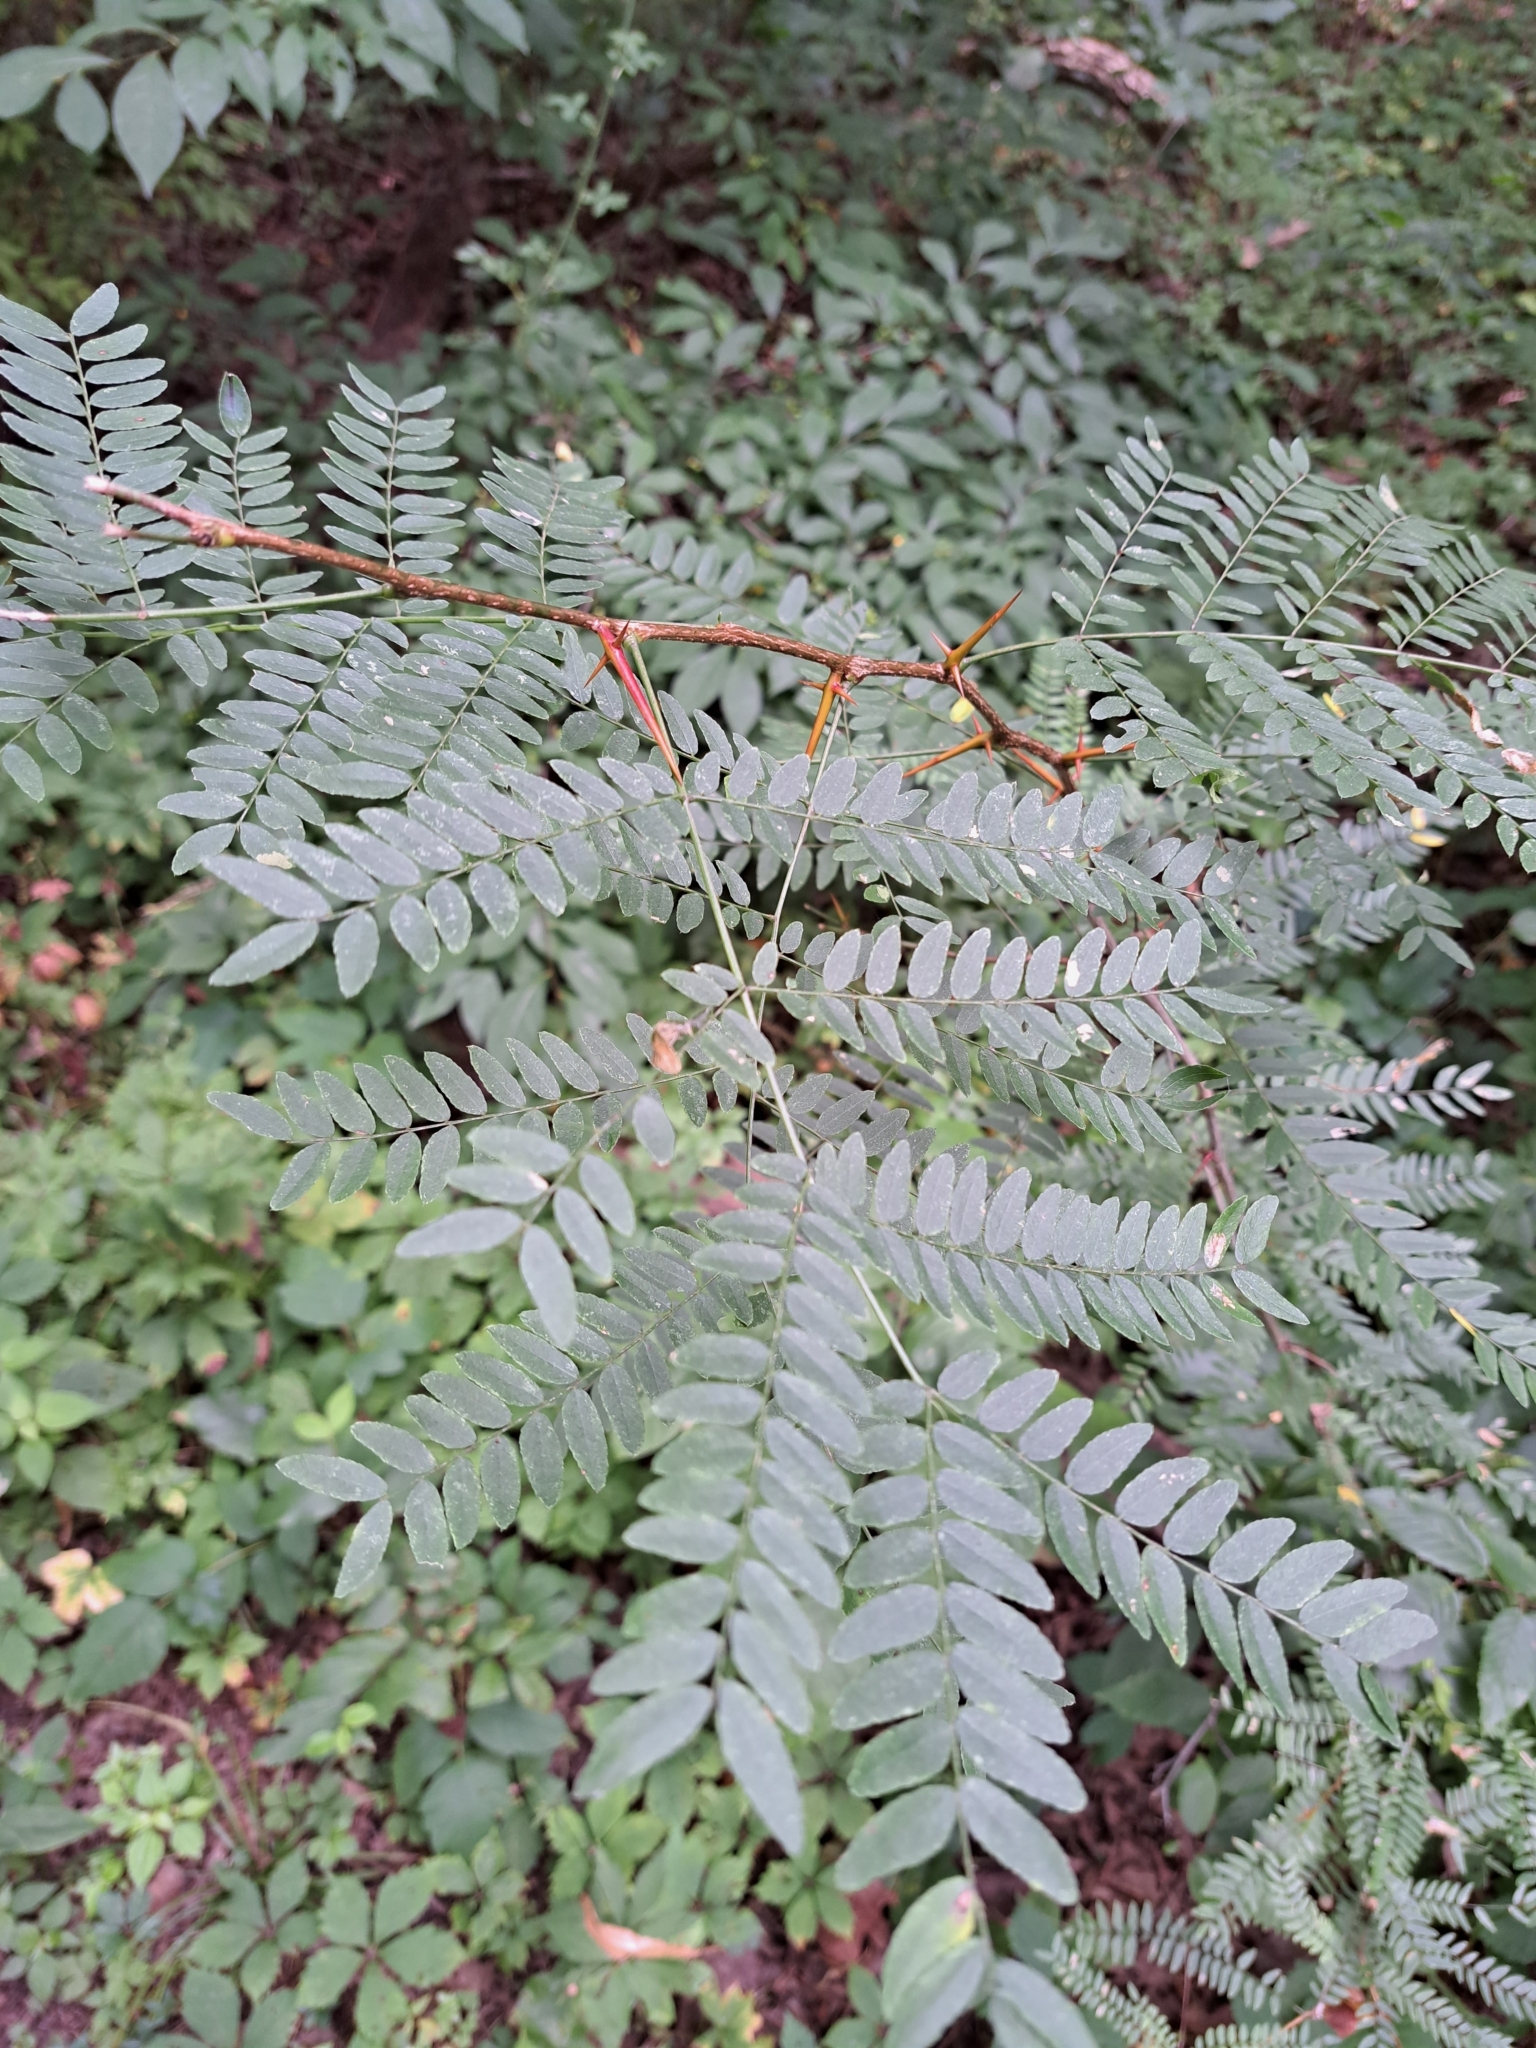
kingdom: Plantae
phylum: Tracheophyta
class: Magnoliopsida
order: Fabales
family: Fabaceae
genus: Gleditsia
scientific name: Gleditsia triacanthos
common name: Common honeylocust
